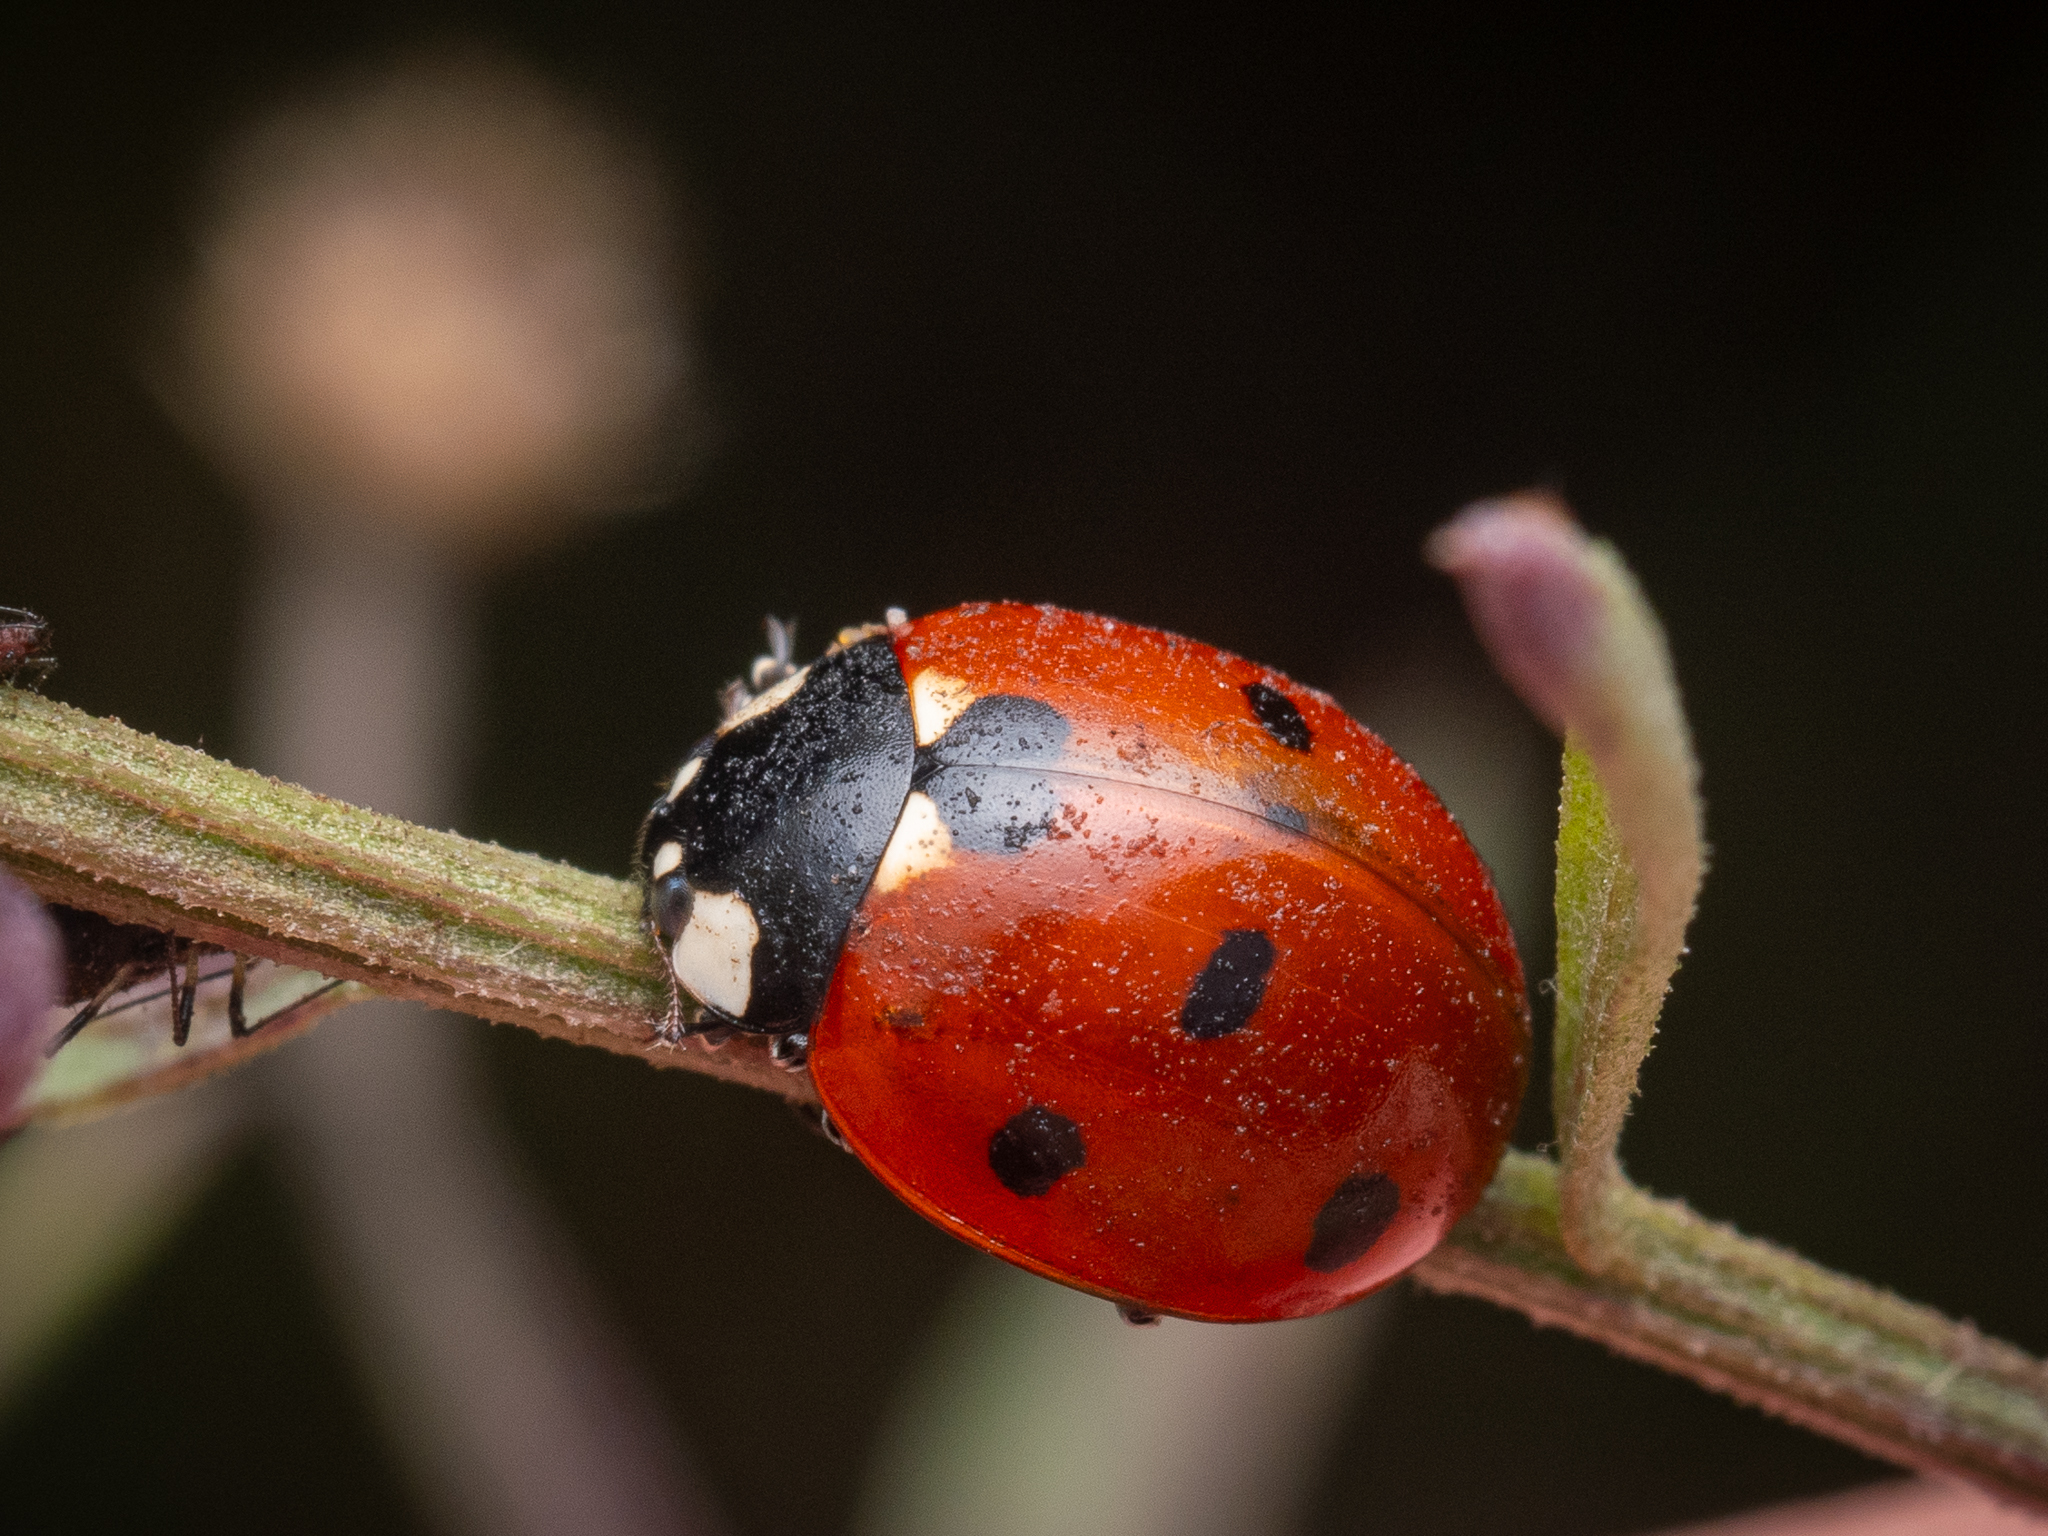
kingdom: Animalia
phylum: Arthropoda
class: Insecta
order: Coleoptera
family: Coccinellidae
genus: Coccinella
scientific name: Coccinella septempunctata
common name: Sevenspotted lady beetle
